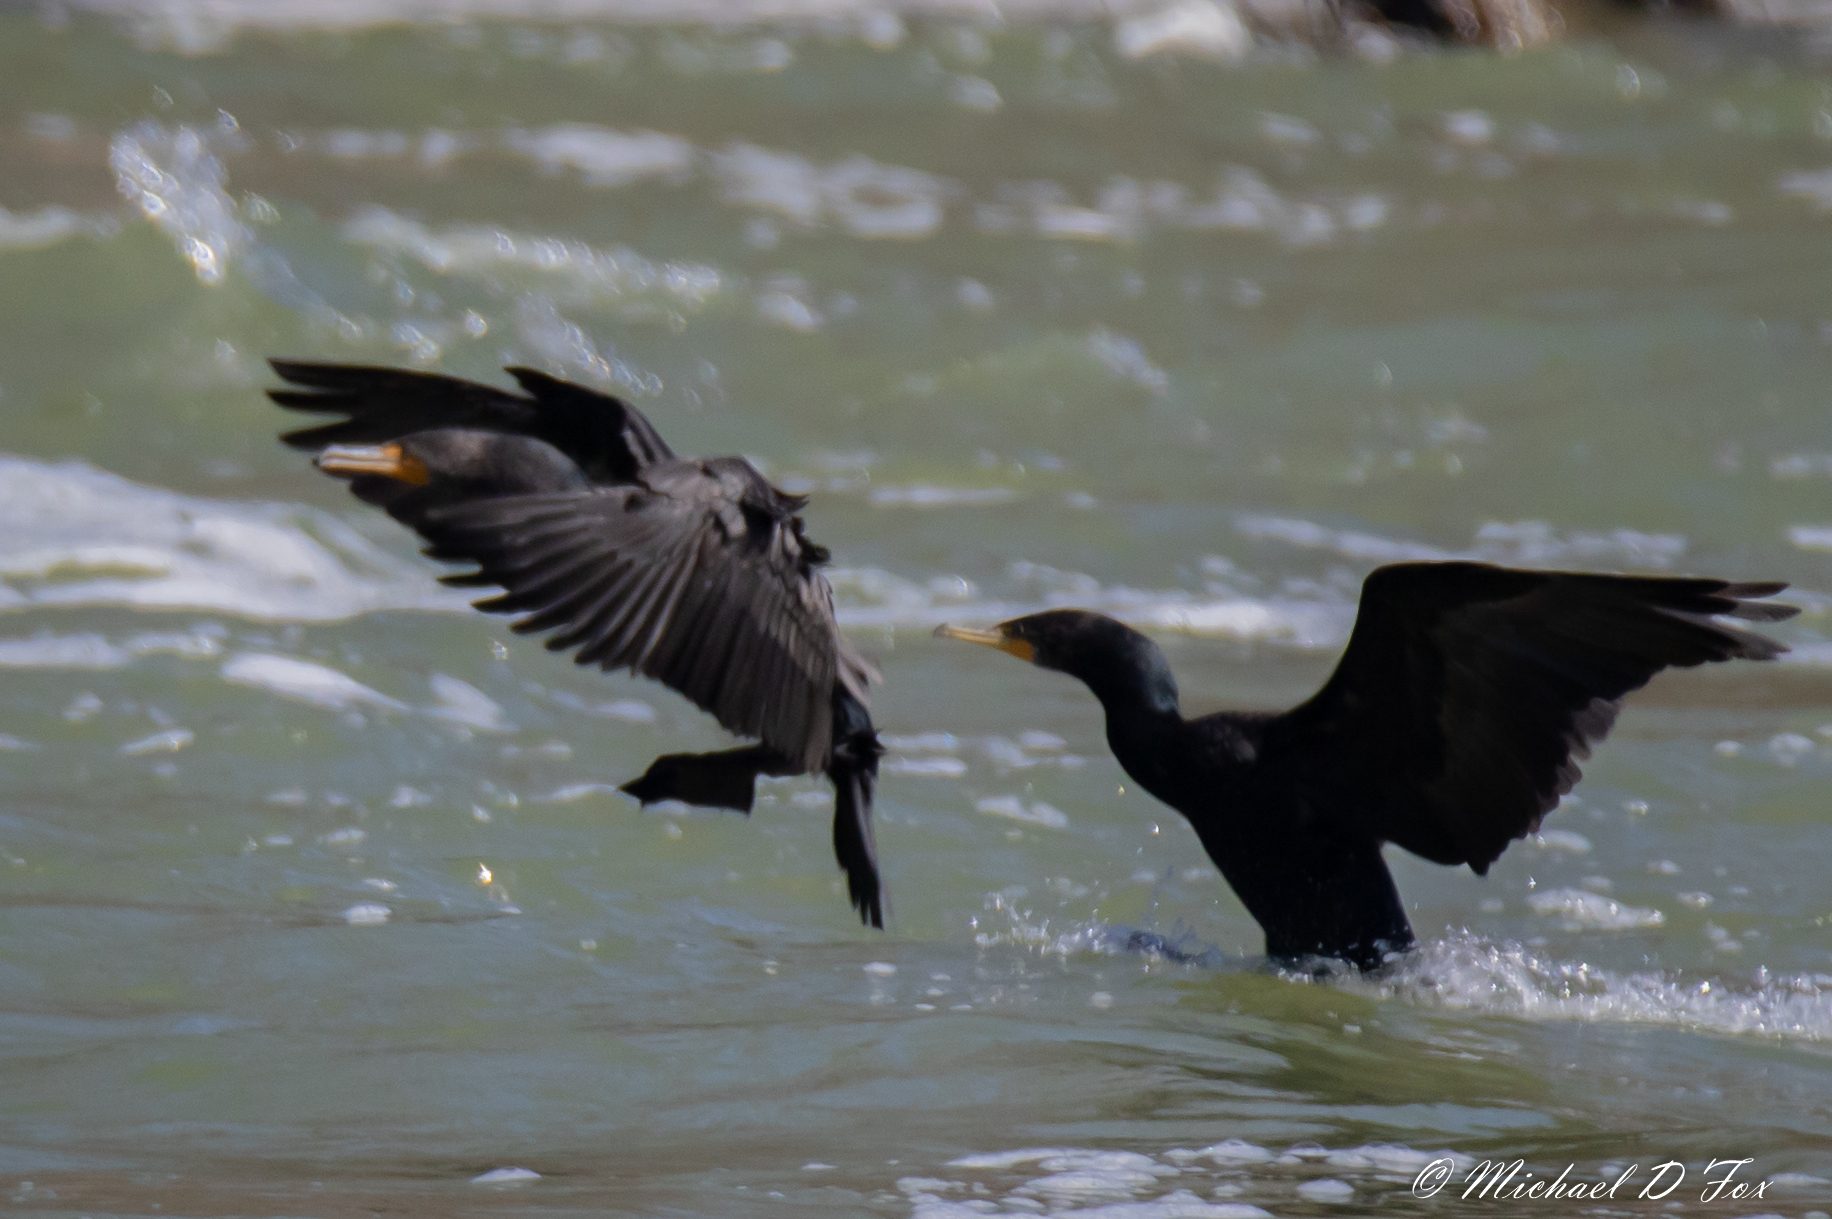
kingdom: Animalia
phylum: Chordata
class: Aves
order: Suliformes
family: Phalacrocoracidae
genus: Phalacrocorax
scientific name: Phalacrocorax auritus
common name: Double-crested cormorant
